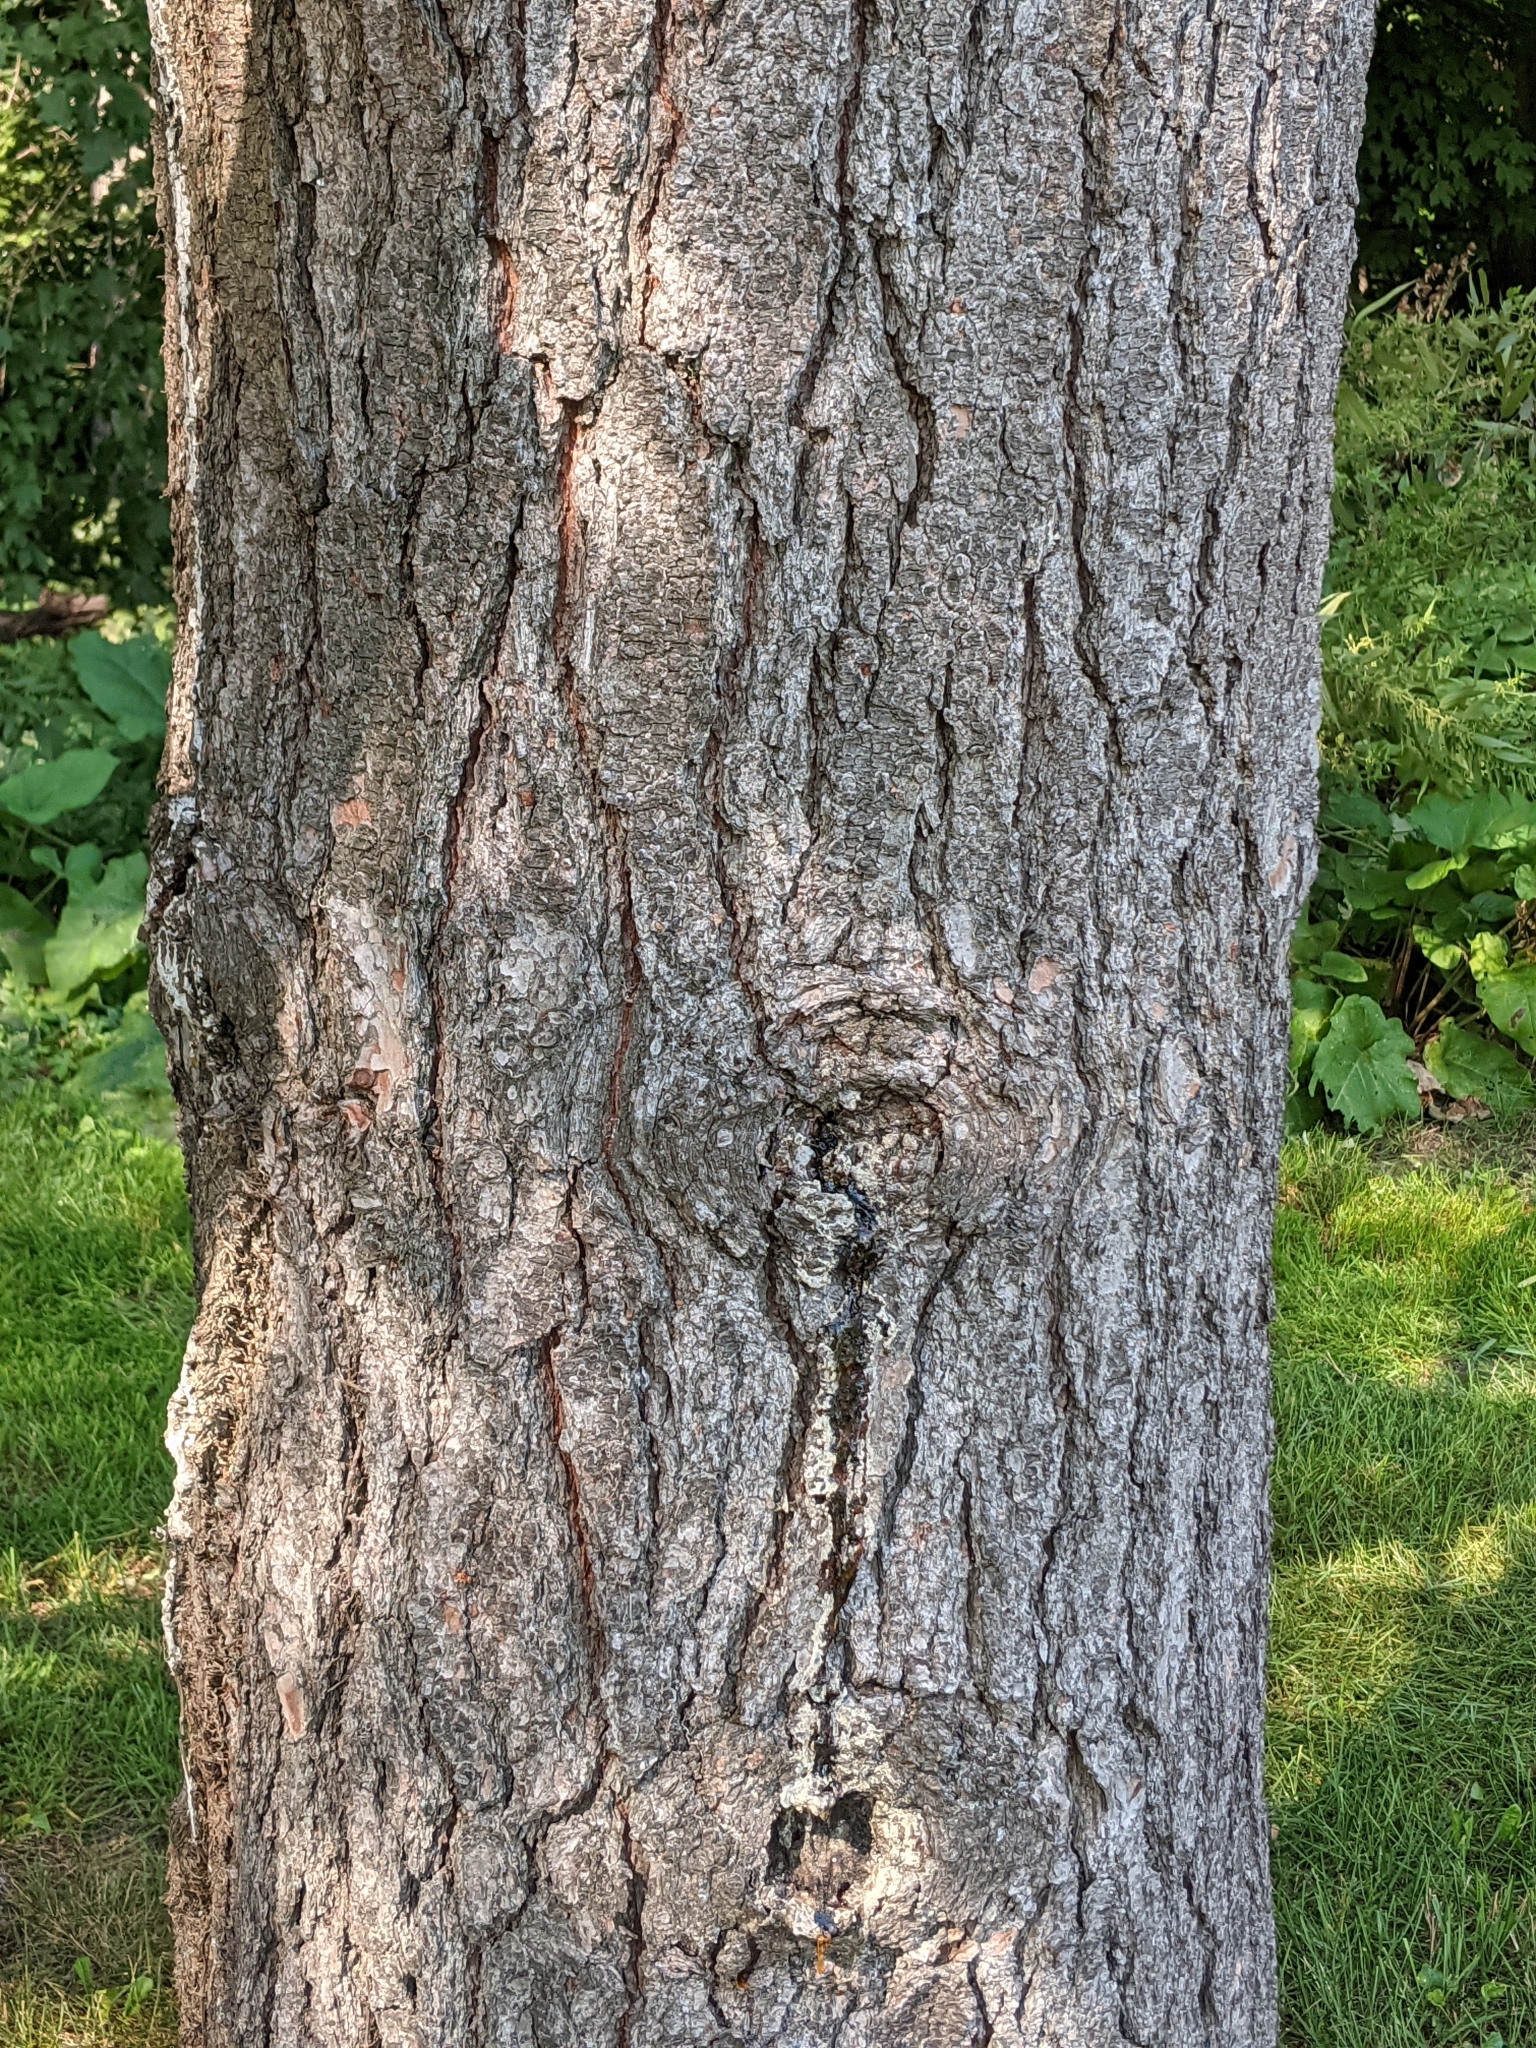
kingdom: Plantae
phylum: Tracheophyta
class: Pinopsida
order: Pinales
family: Pinaceae
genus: Pinus
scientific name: Pinus strobus
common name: Weymouth pine
